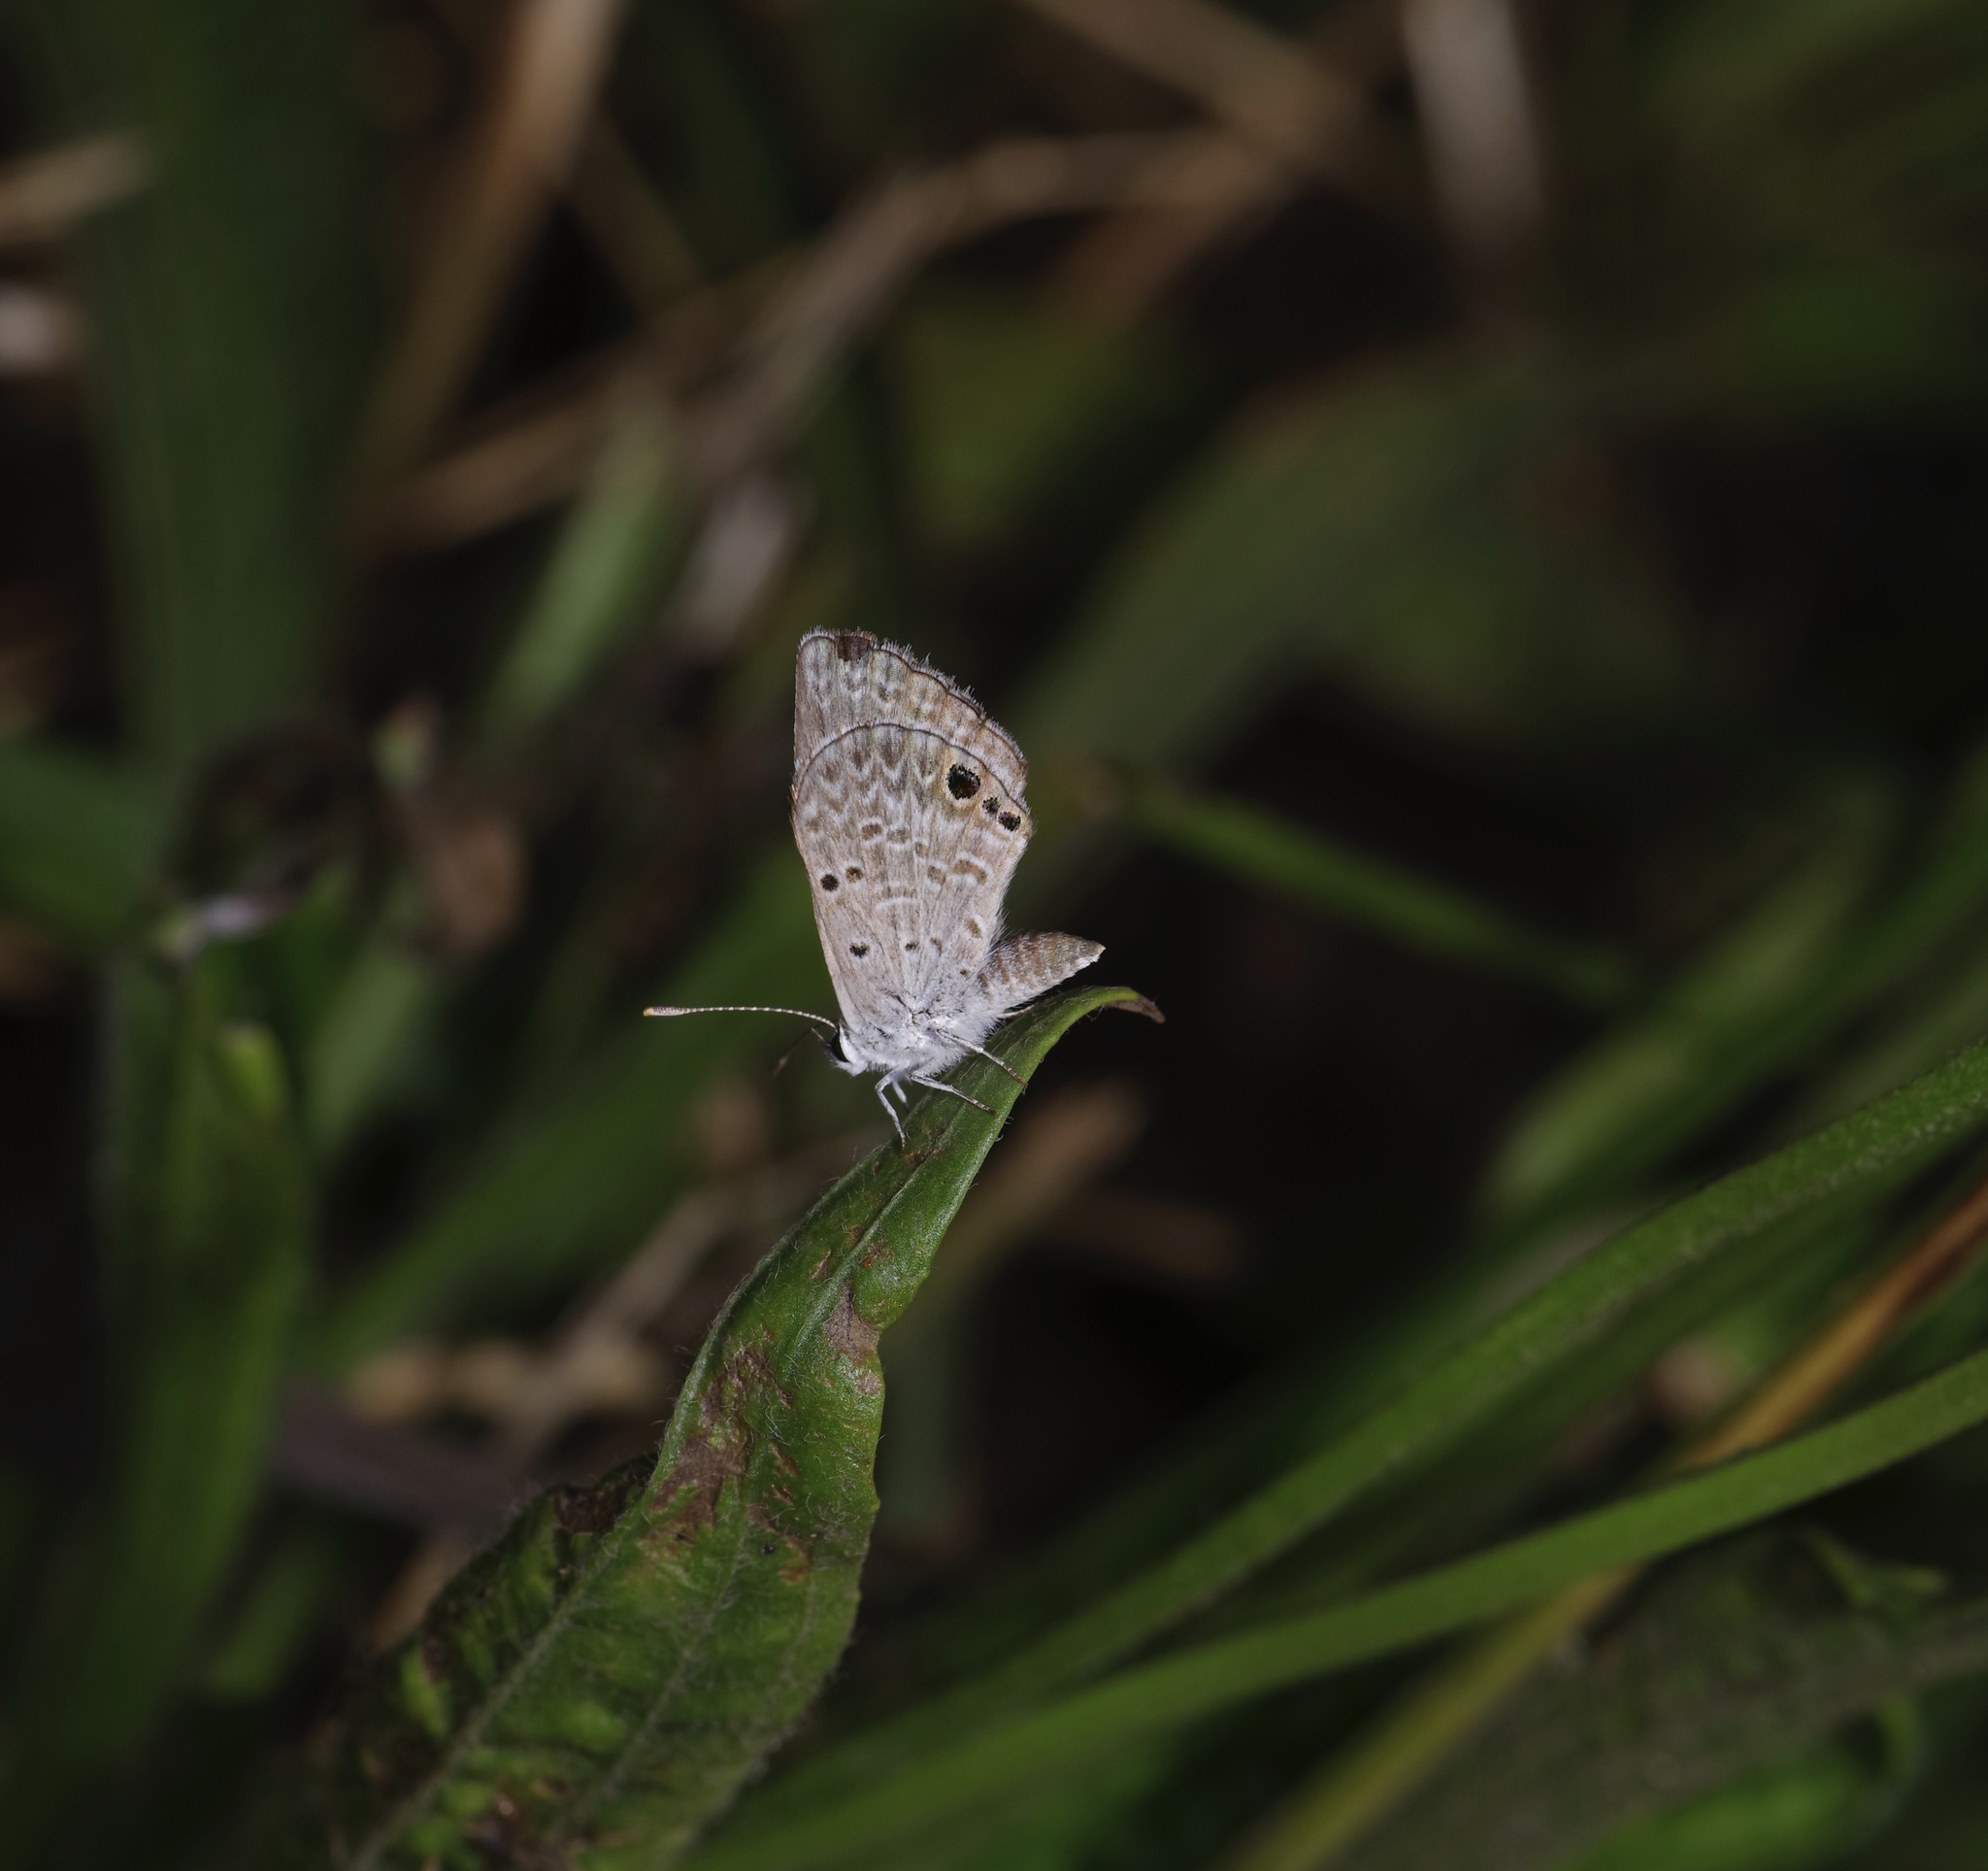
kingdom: Animalia
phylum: Arthropoda
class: Insecta
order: Lepidoptera
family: Lycaenidae
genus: Hemiargus
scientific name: Hemiargus ceraunus
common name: Ceraunus blue
